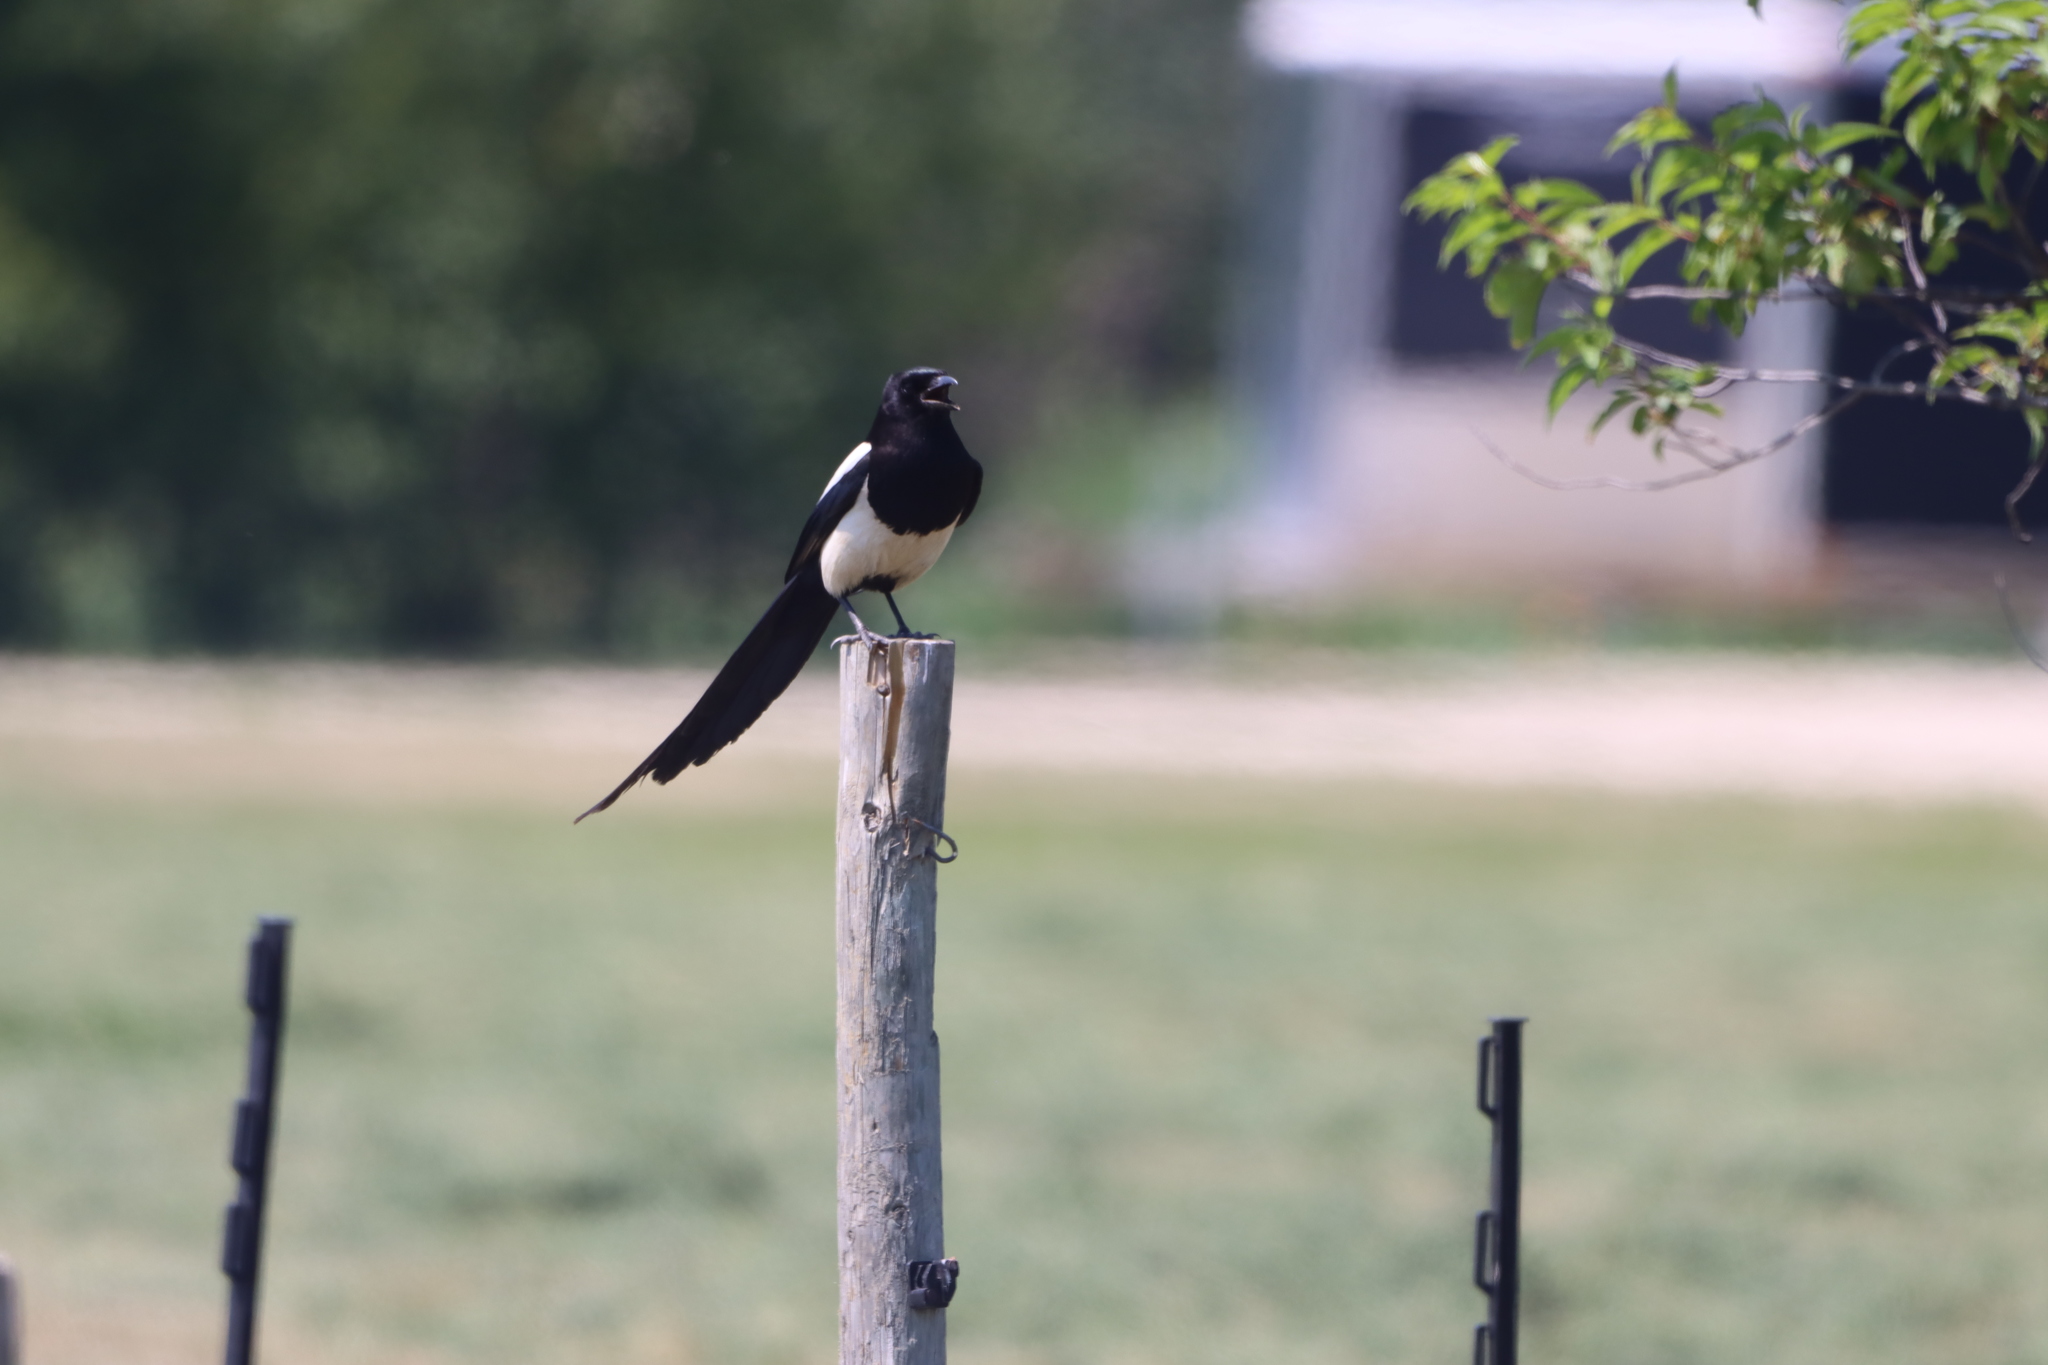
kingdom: Animalia
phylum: Chordata
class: Aves
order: Passeriformes
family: Corvidae
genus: Pica
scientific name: Pica hudsonia
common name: Black-billed magpie
